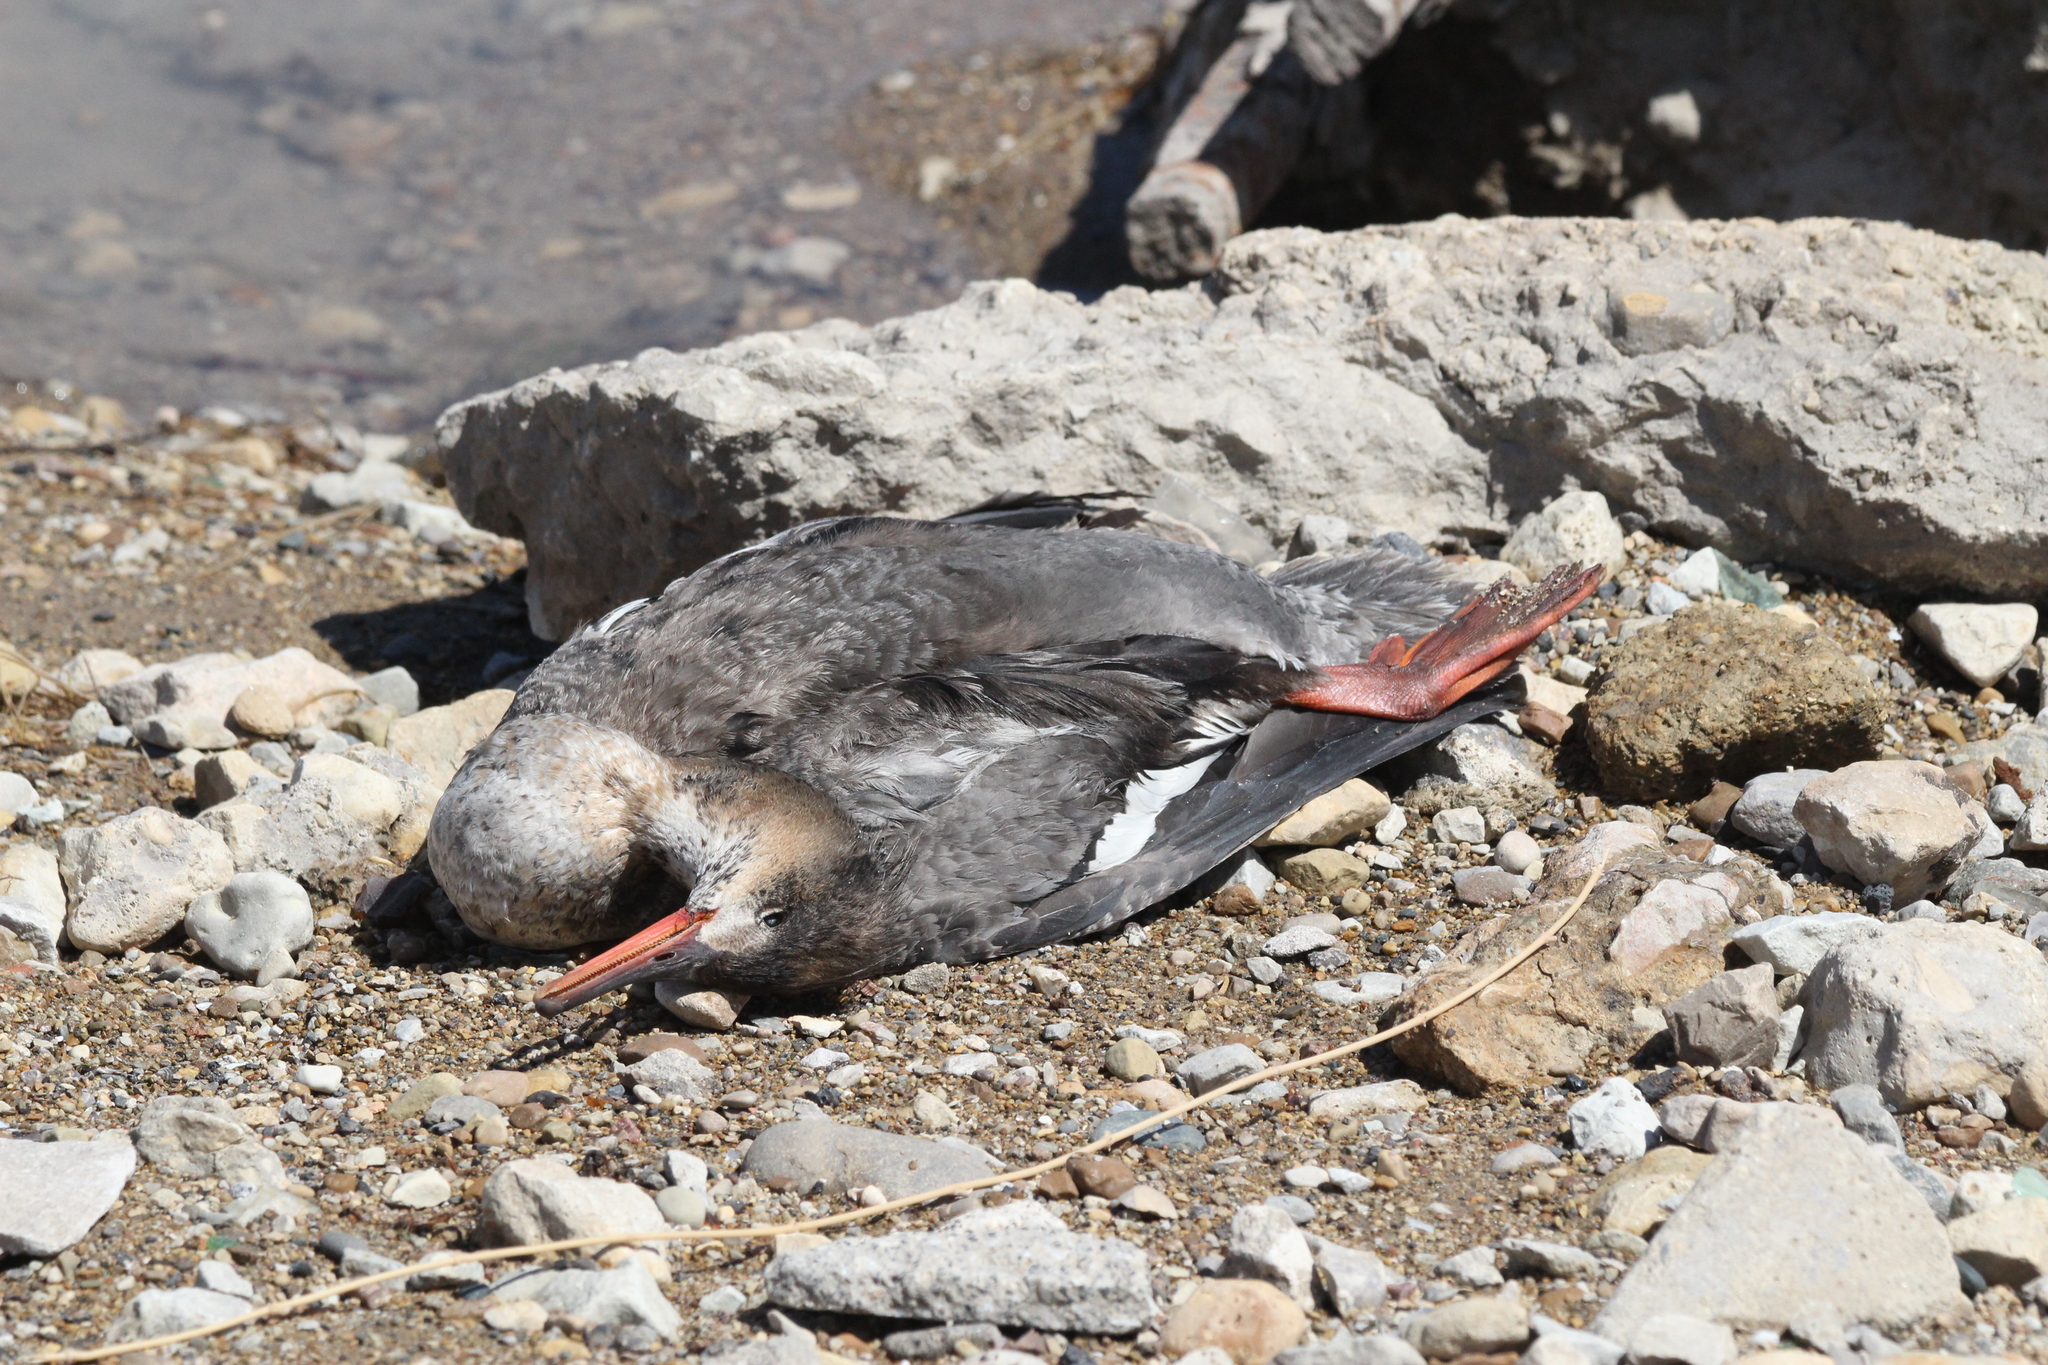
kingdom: Animalia
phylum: Chordata
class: Aves
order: Anseriformes
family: Anatidae
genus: Mergus
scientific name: Mergus serrator
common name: Red-breasted merganser
